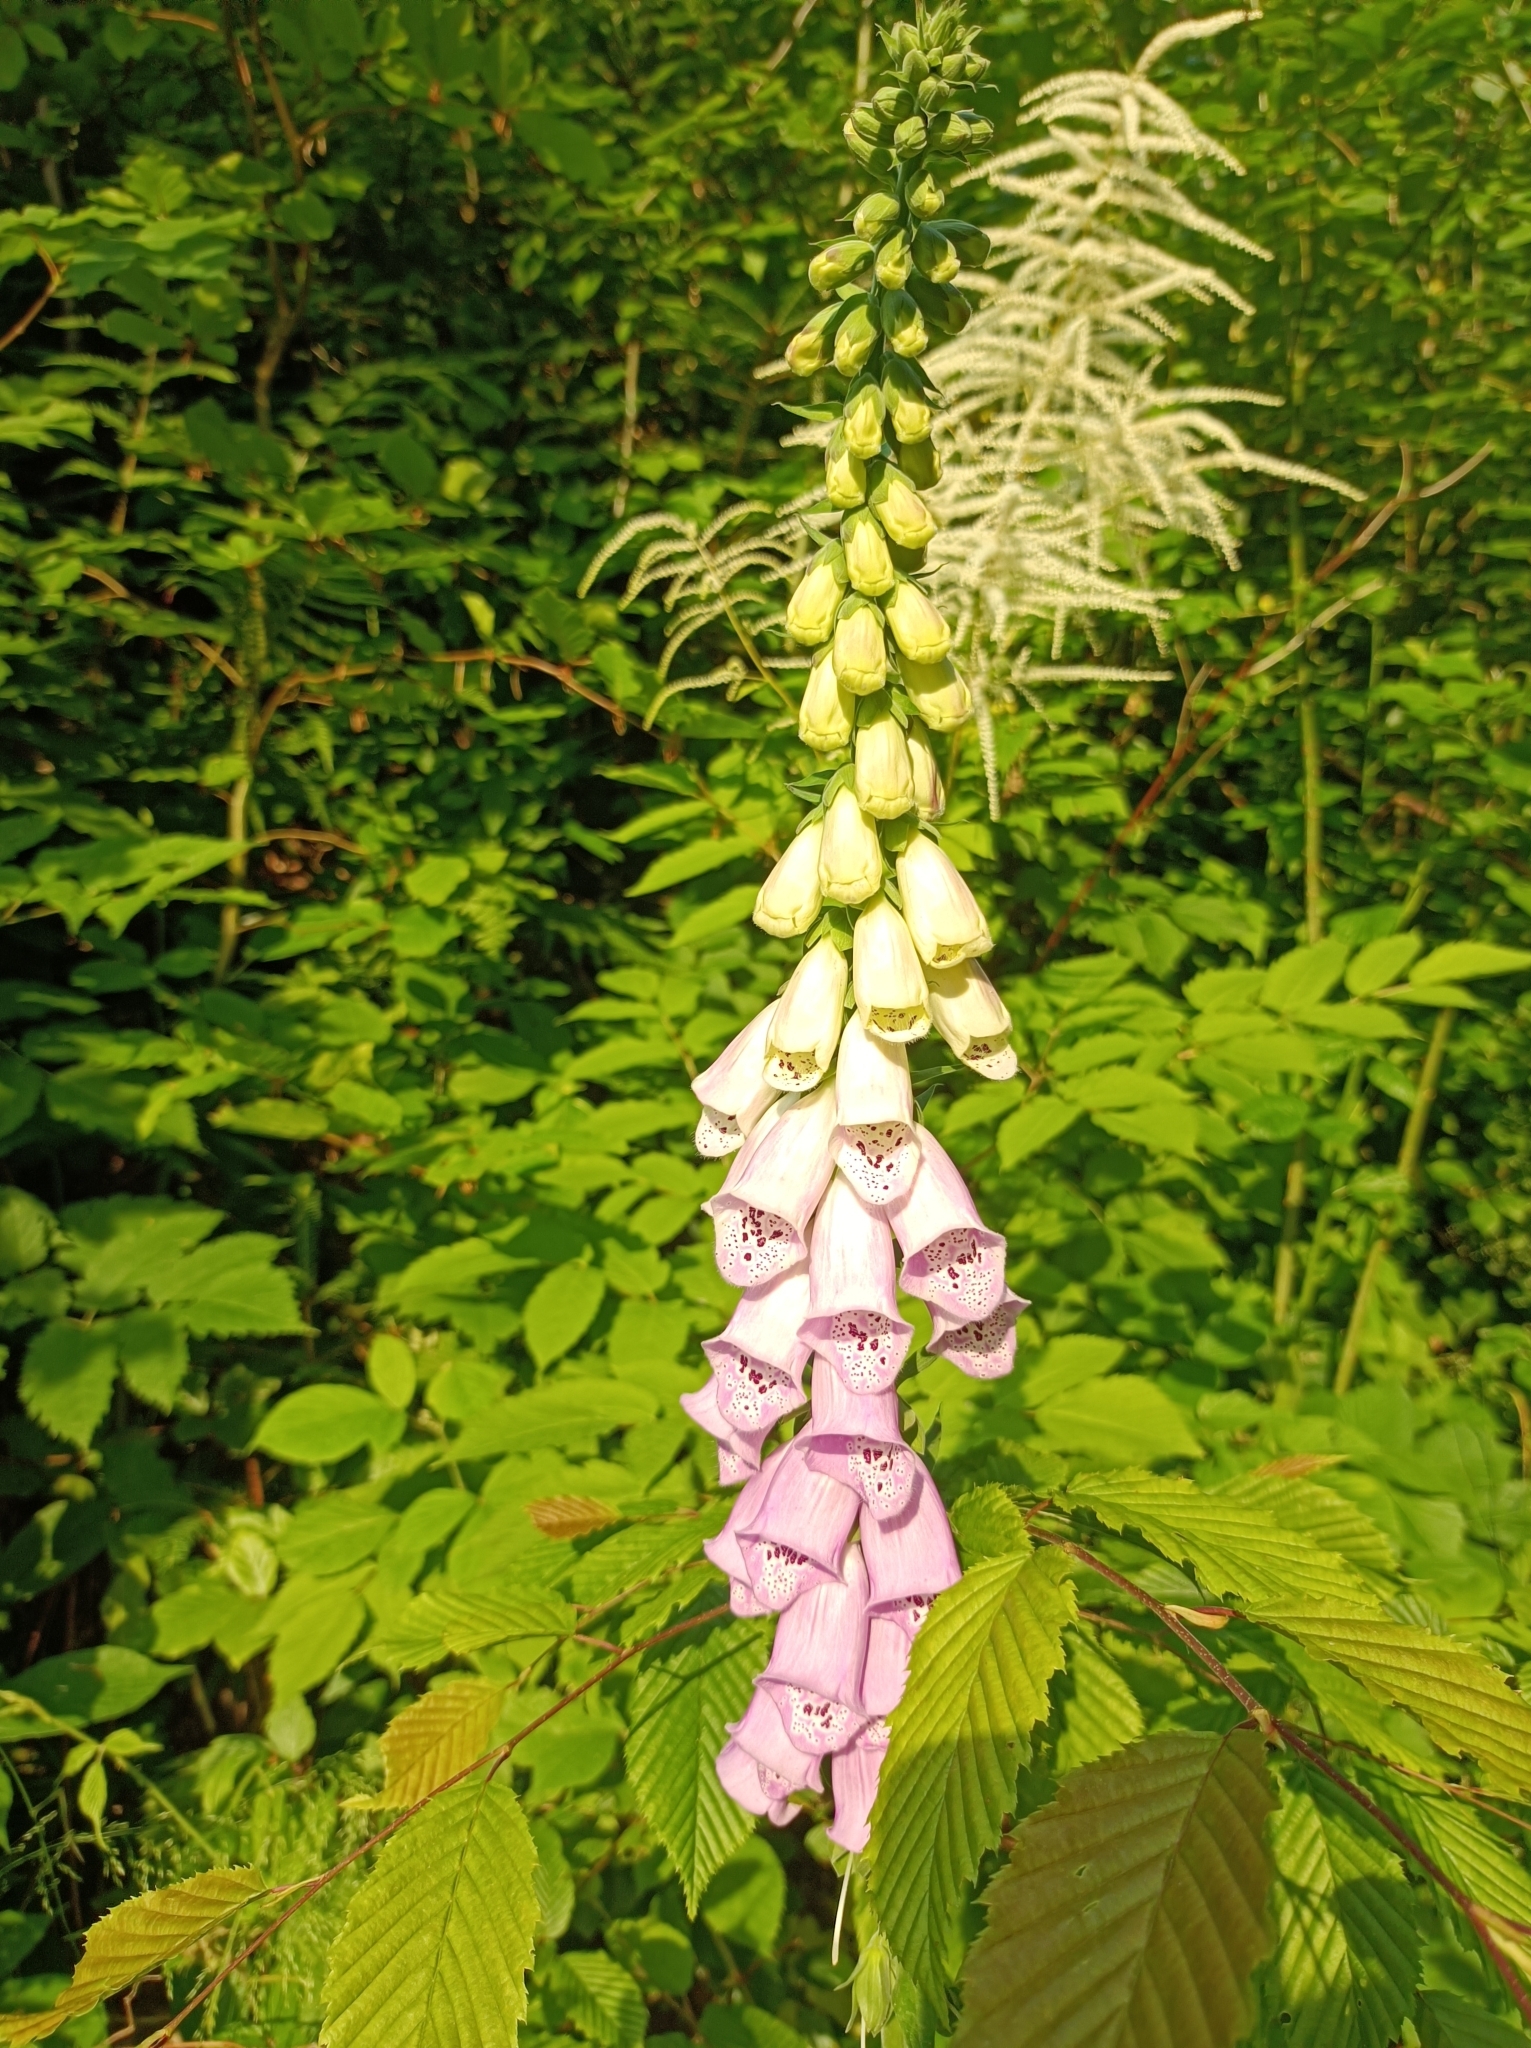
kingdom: Plantae
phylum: Tracheophyta
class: Magnoliopsida
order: Lamiales
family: Plantaginaceae
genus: Digitalis
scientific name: Digitalis purpurea
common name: Foxglove
